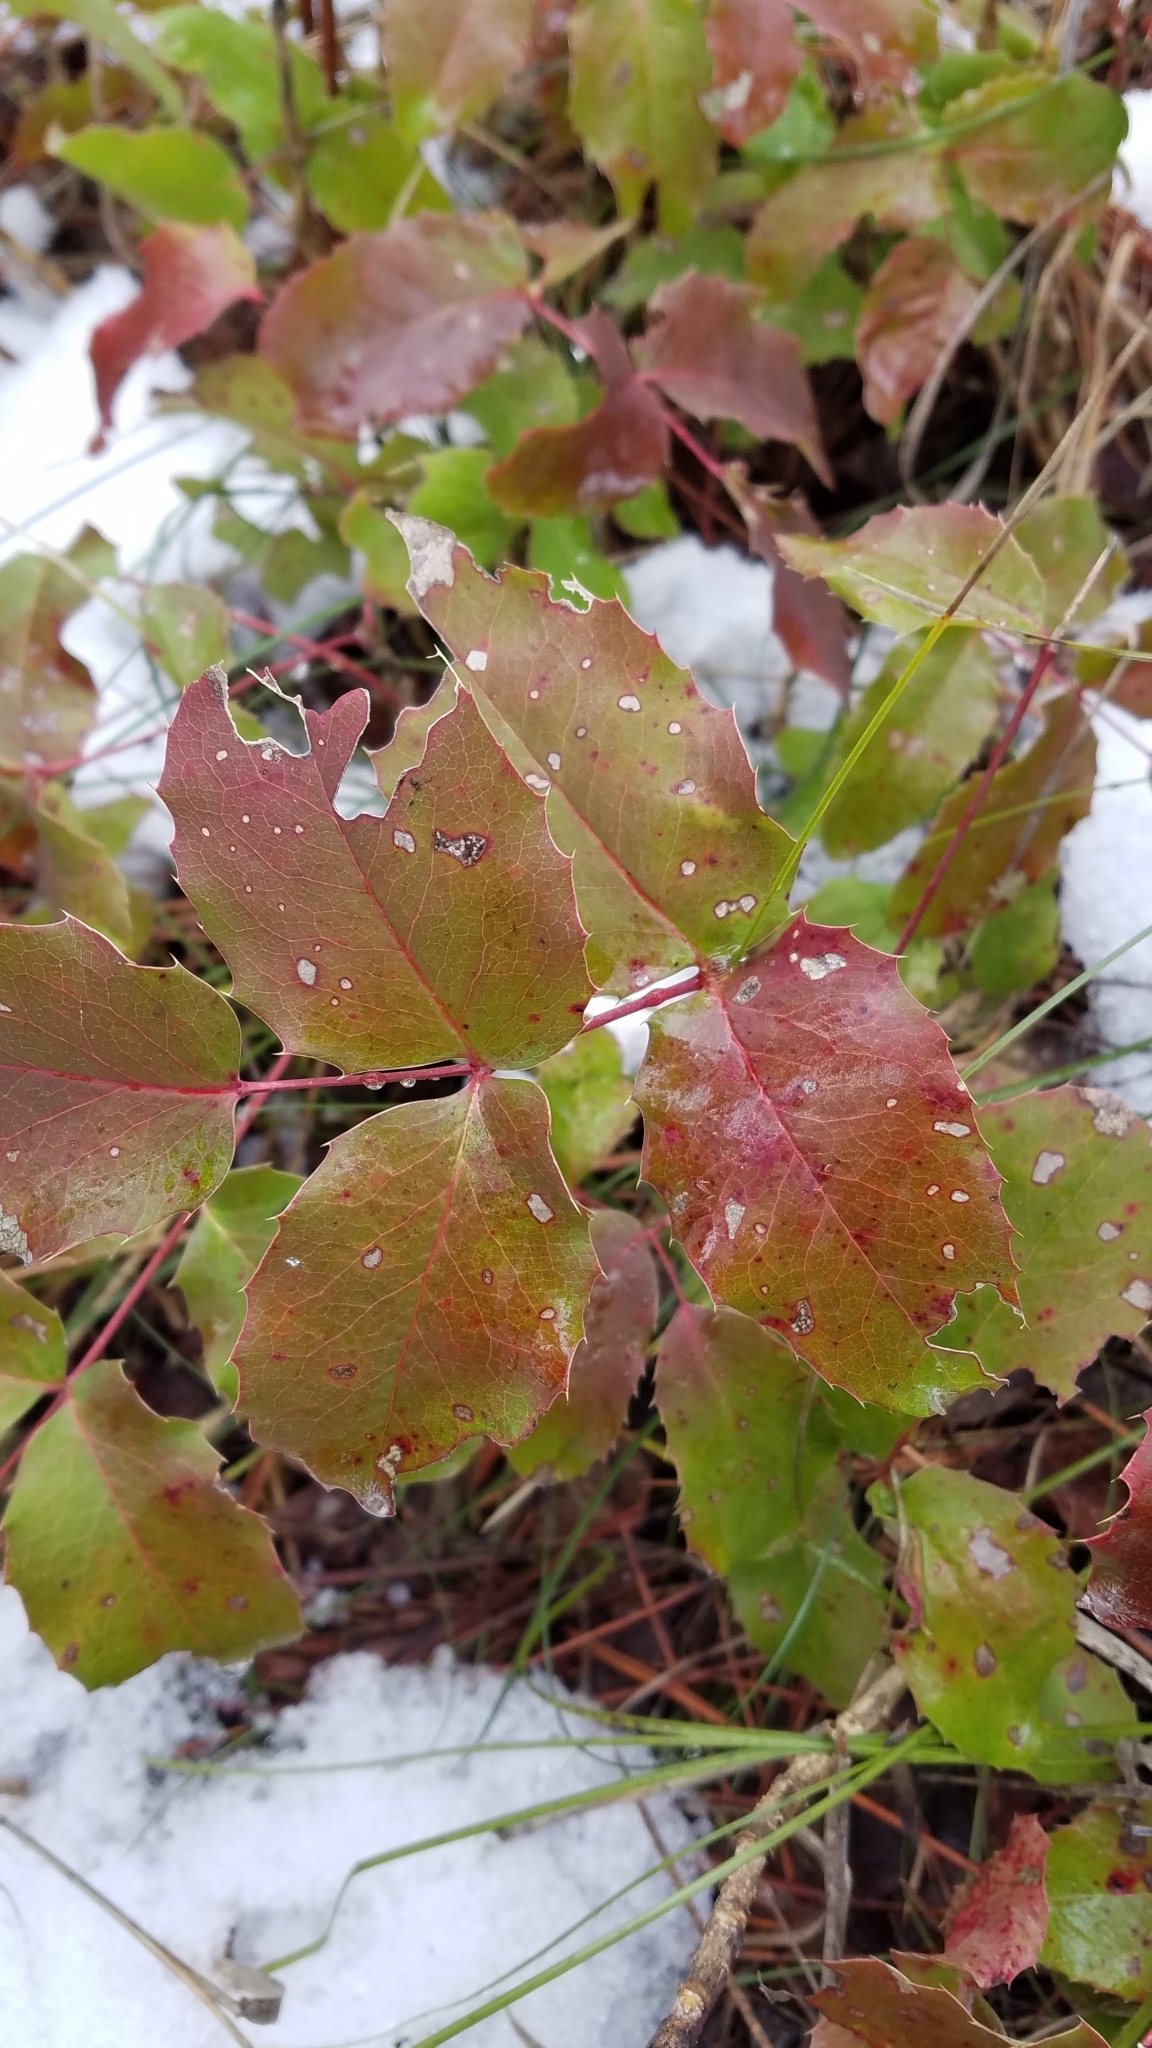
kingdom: Plantae
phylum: Tracheophyta
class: Magnoliopsida
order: Ranunculales
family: Berberidaceae
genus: Mahonia
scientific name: Mahonia repens
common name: Creeping oregon-grape
